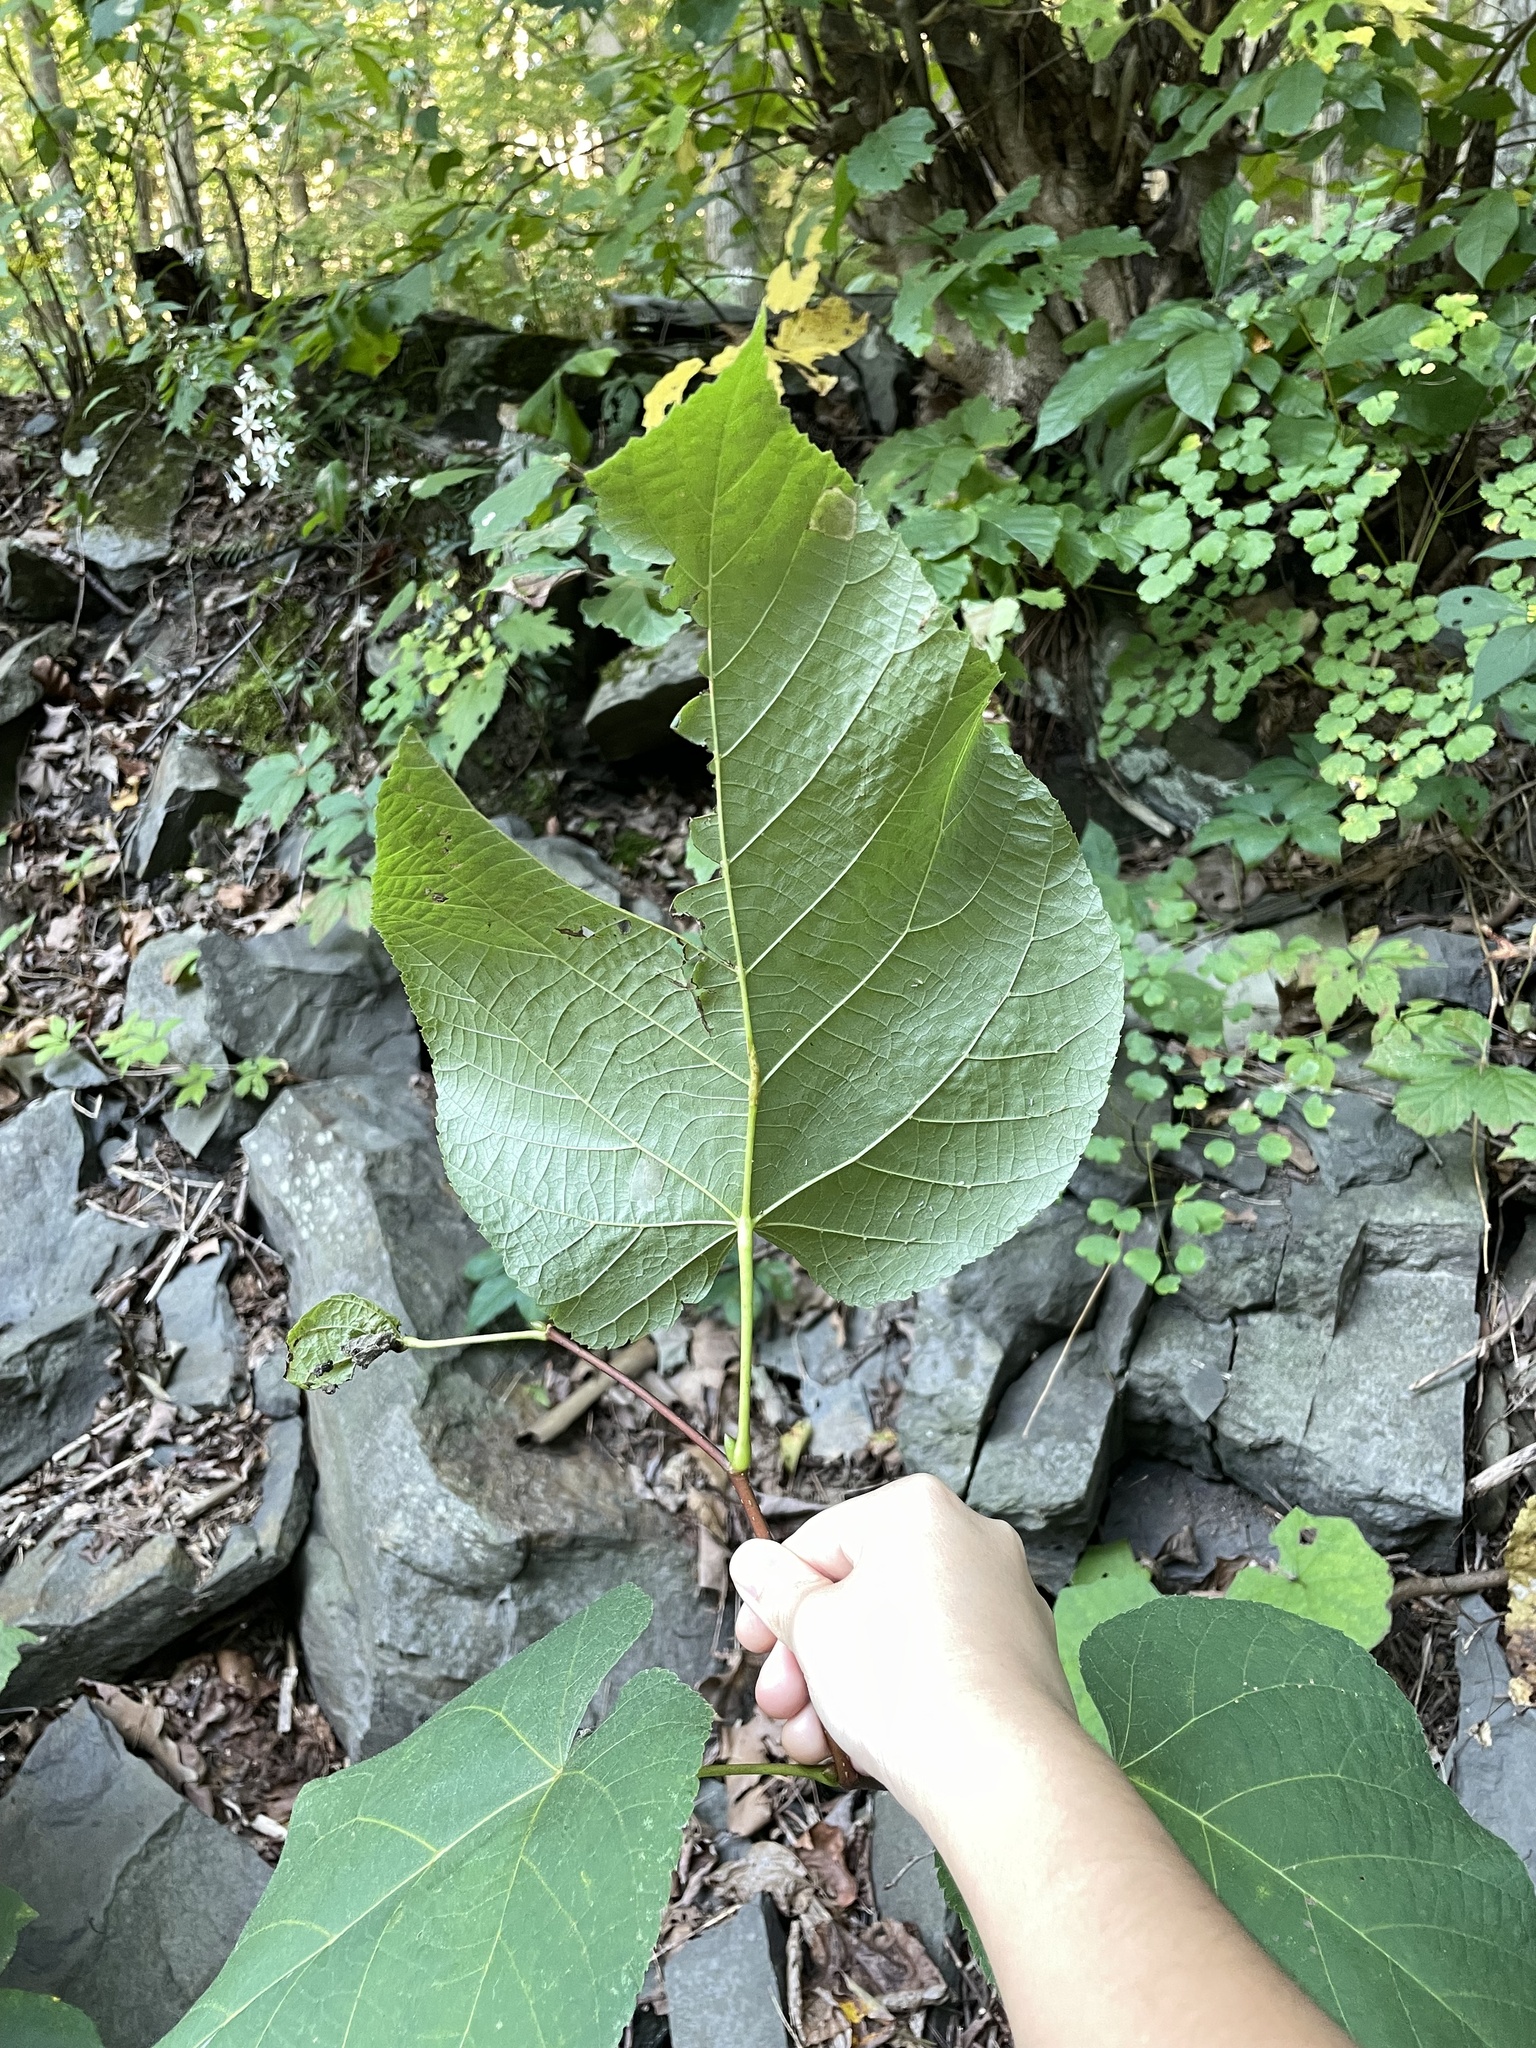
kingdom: Plantae
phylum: Tracheophyta
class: Magnoliopsida
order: Malvales
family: Malvaceae
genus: Tilia
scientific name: Tilia americana
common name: Basswood
